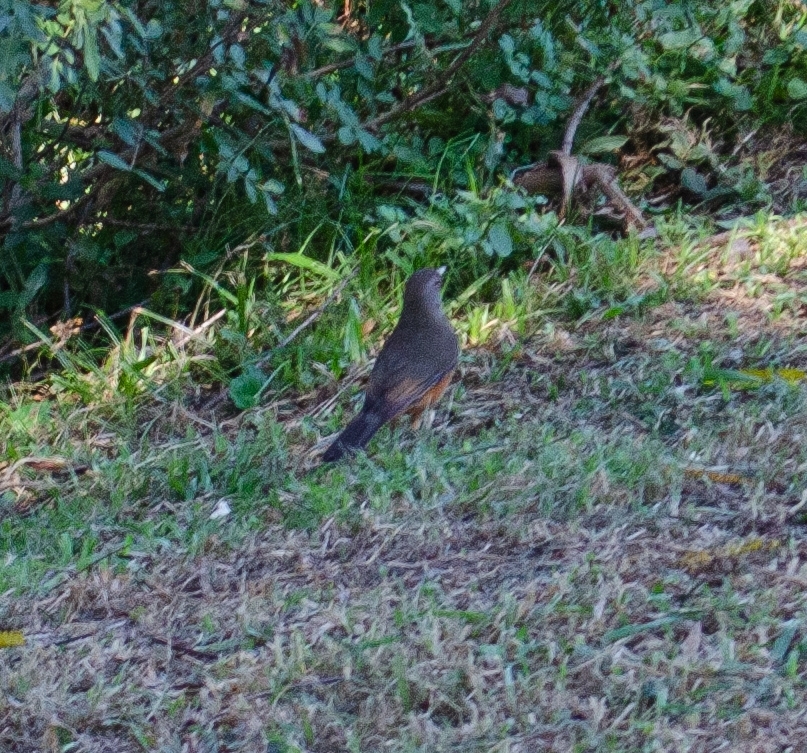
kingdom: Animalia
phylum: Chordata
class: Aves
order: Passeriformes
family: Turdidae
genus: Turdus
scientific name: Turdus rufiventris
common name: Rufous-bellied thrush
